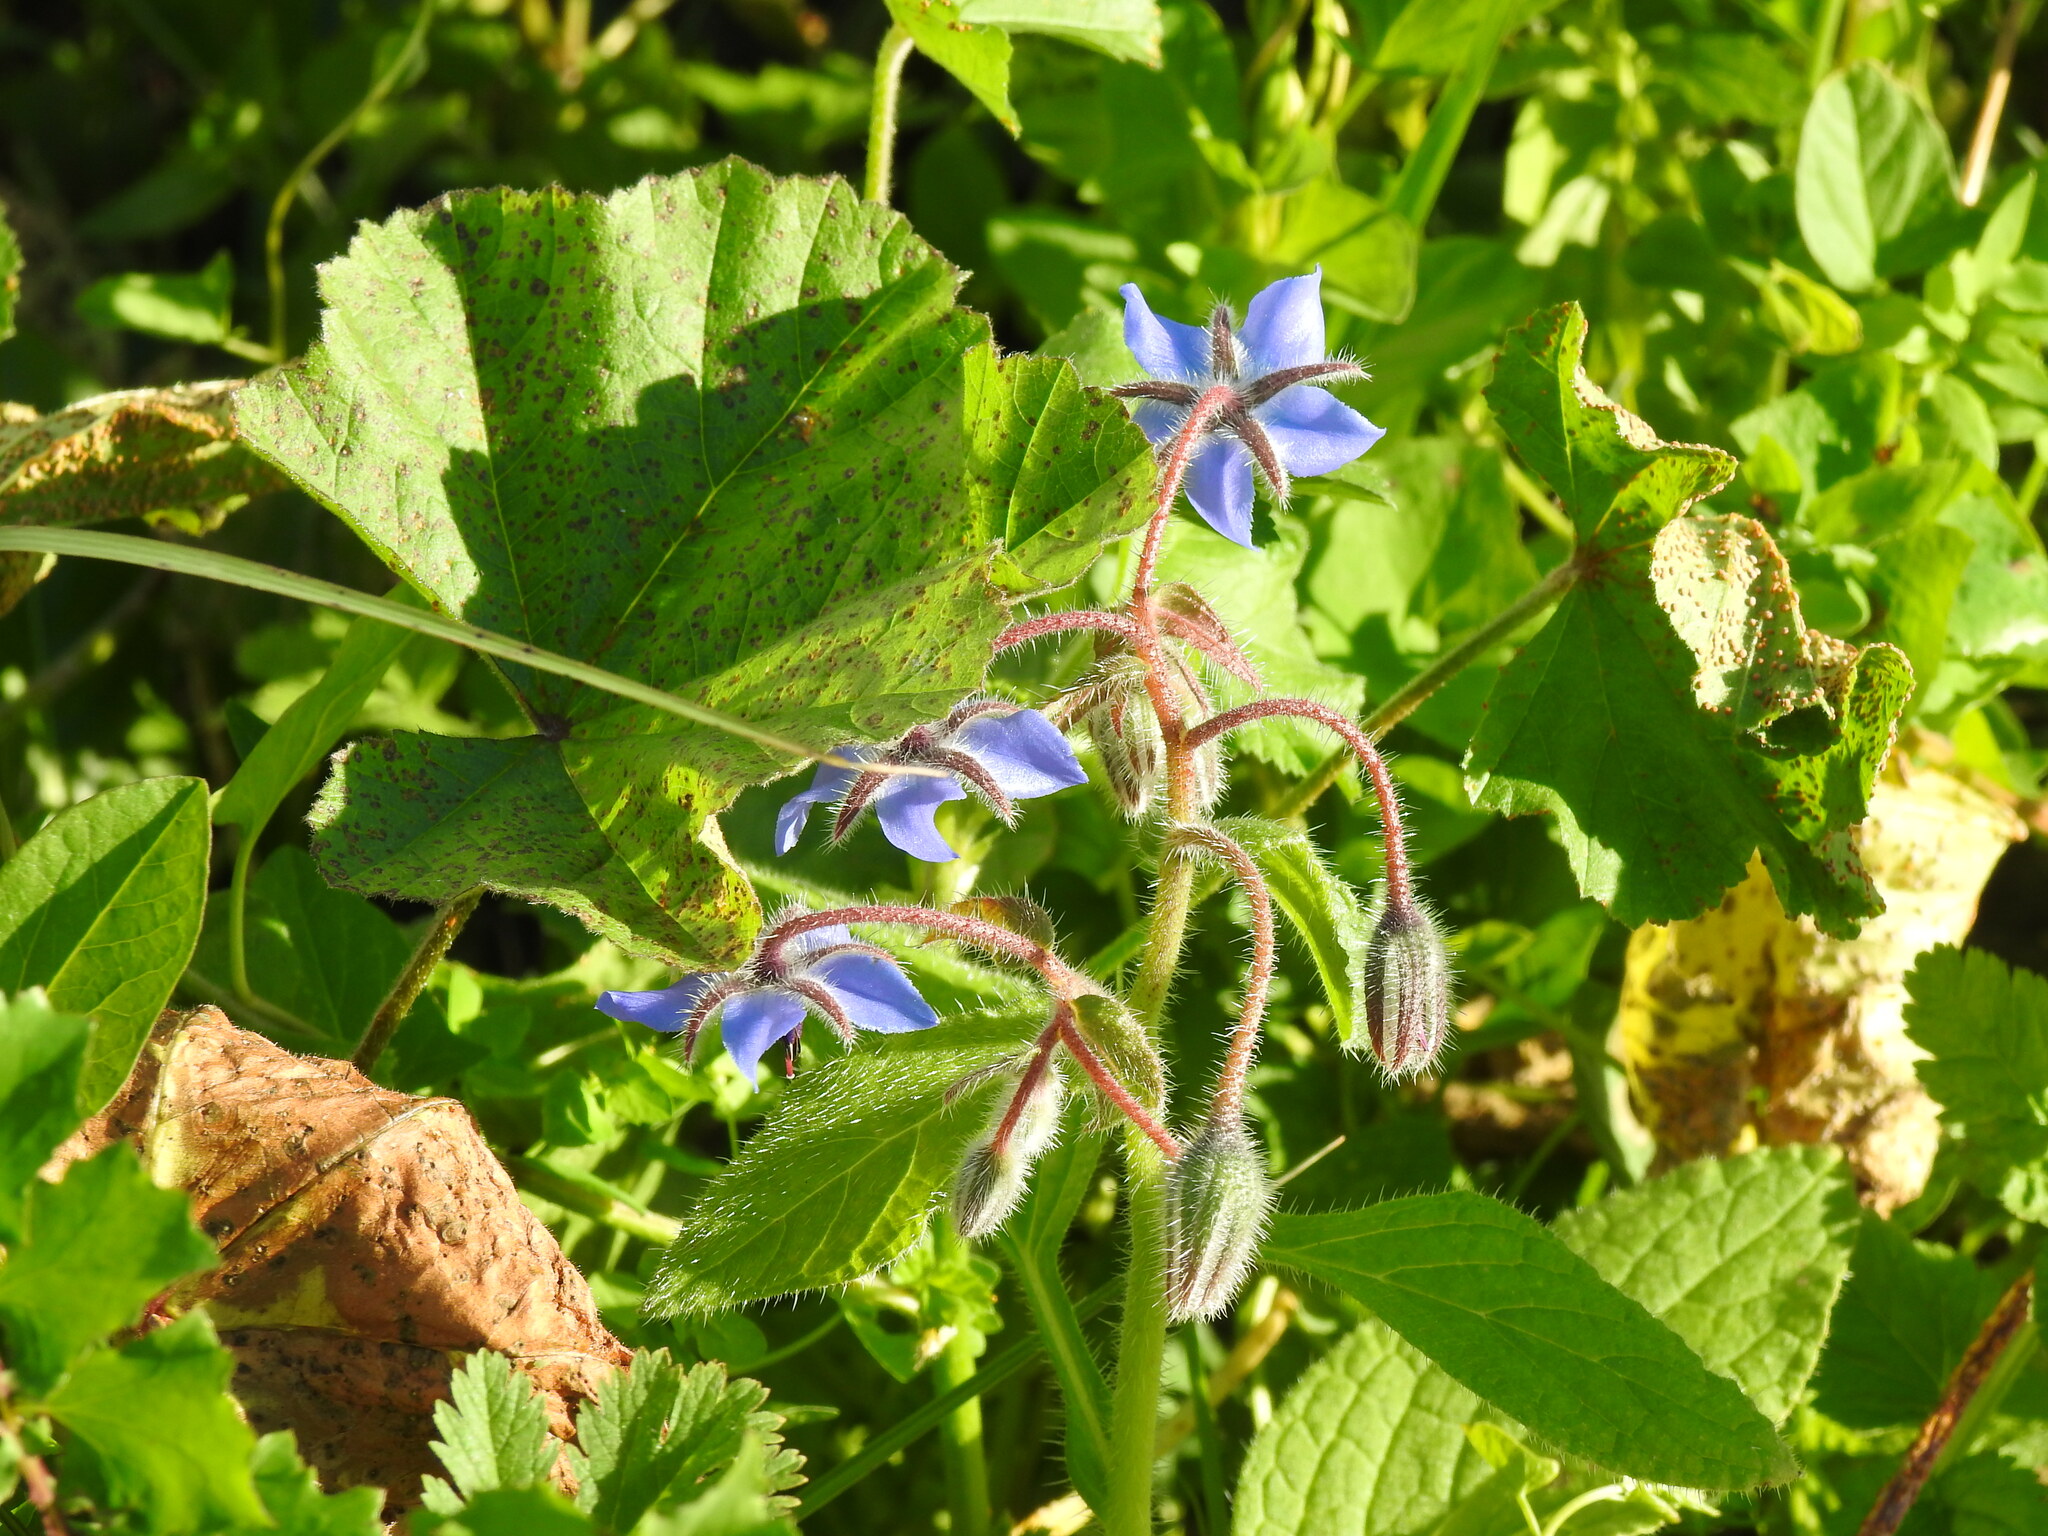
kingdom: Plantae
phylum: Tracheophyta
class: Magnoliopsida
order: Boraginales
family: Boraginaceae
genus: Borago
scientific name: Borago officinalis
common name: Borage
